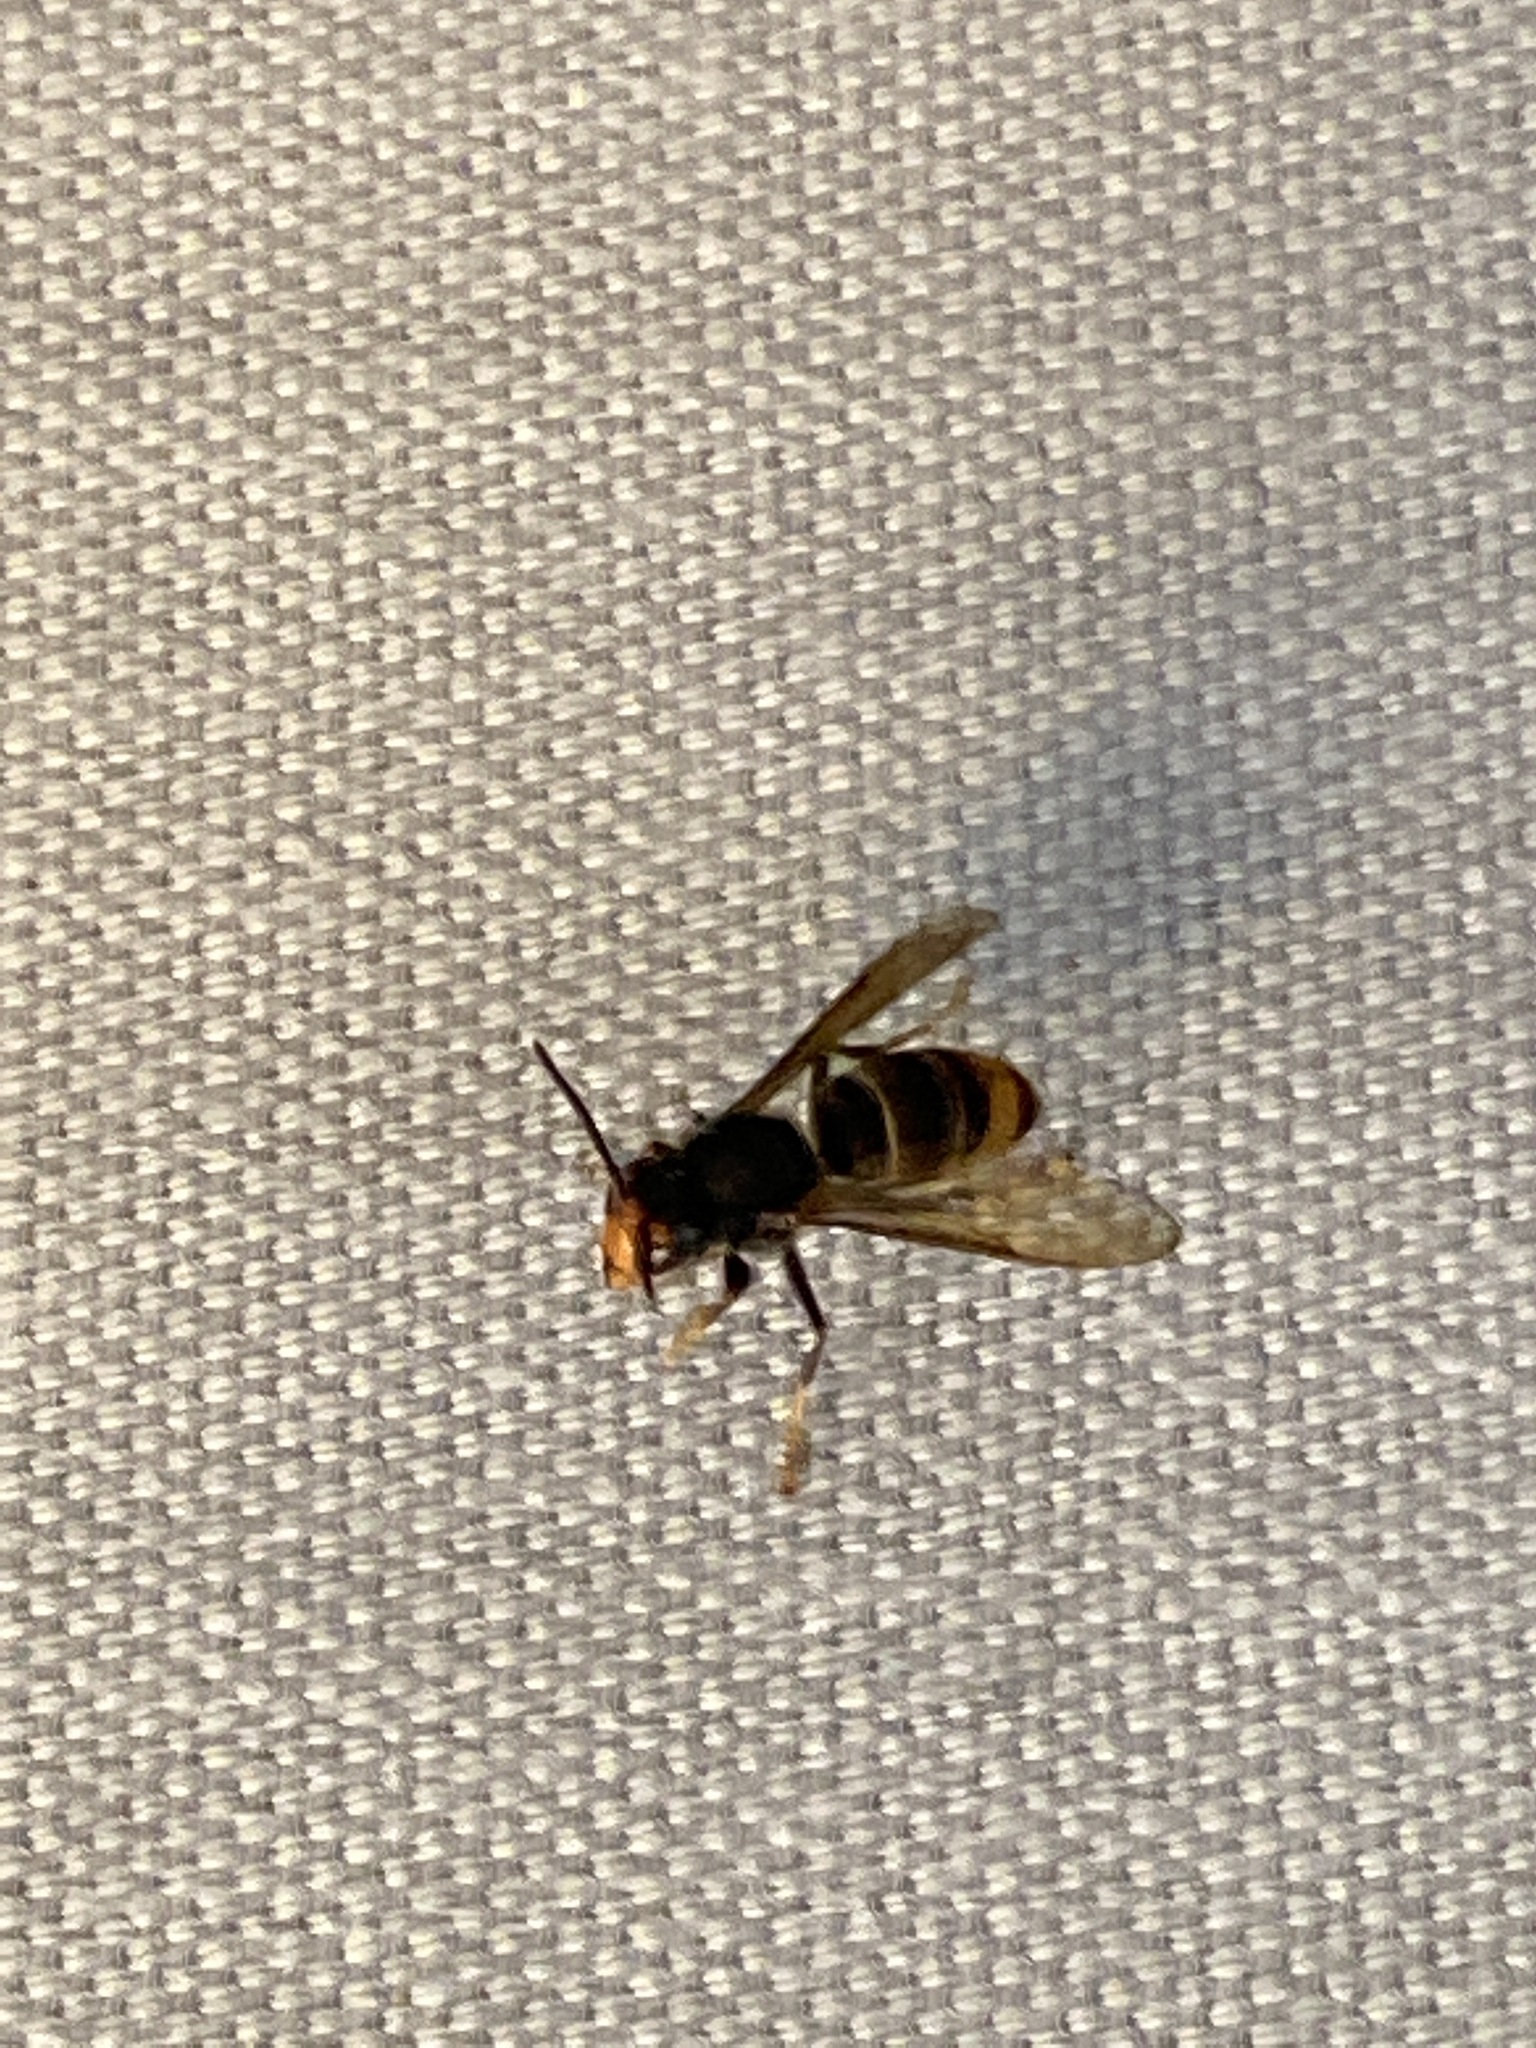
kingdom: Animalia
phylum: Arthropoda
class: Insecta
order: Hymenoptera
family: Vespidae
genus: Vespa
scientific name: Vespa velutina
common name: Asian hornet
